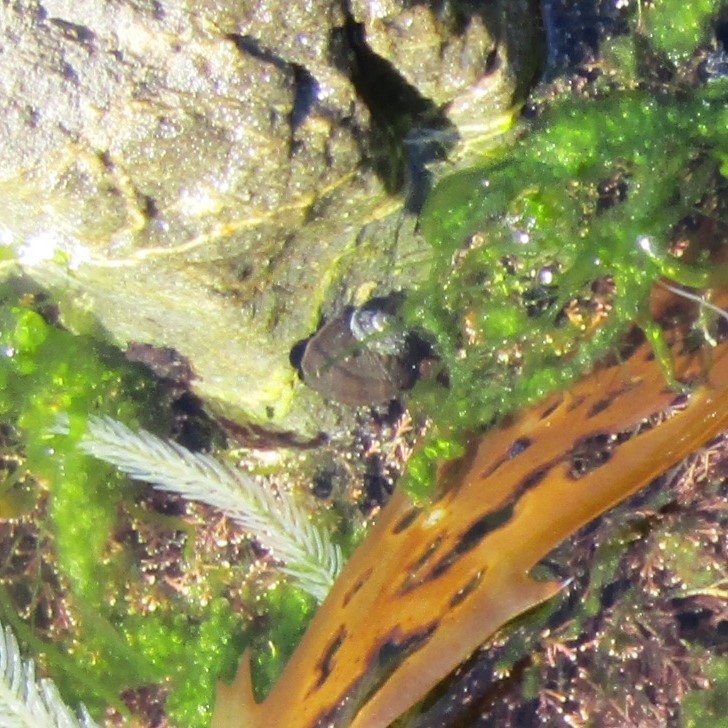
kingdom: Animalia
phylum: Mollusca
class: Gastropoda
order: Trochida
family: Turbinidae
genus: Lunella
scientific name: Lunella smaragda
